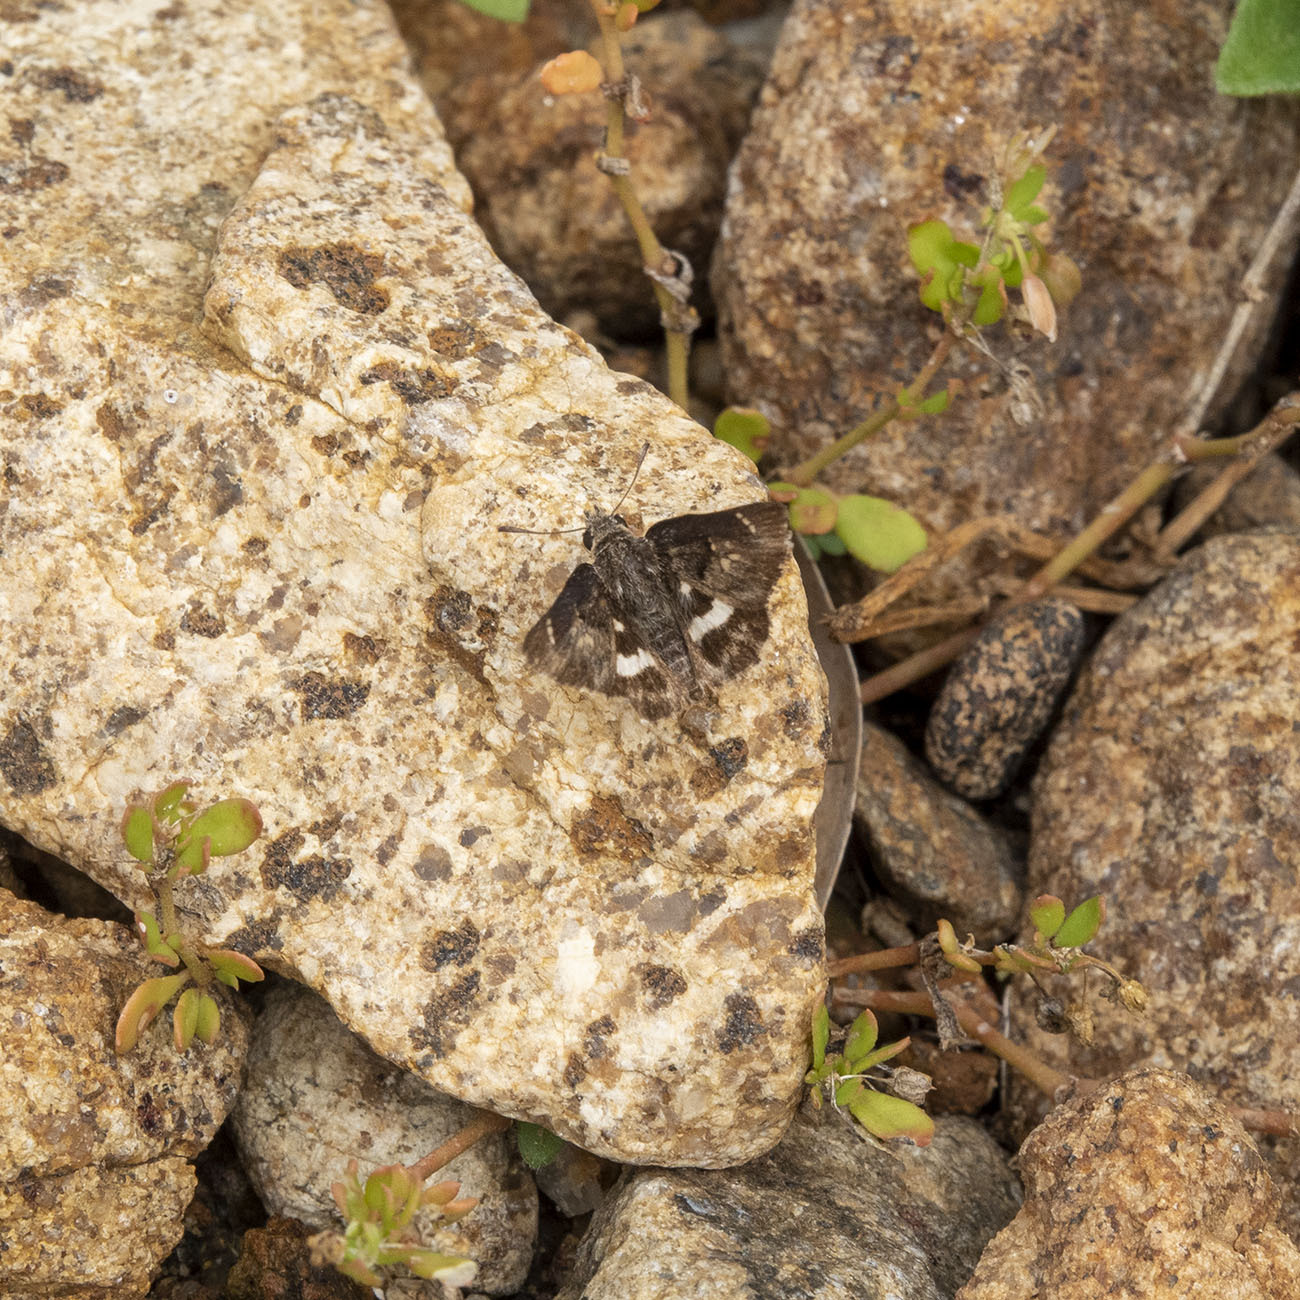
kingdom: Animalia
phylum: Arthropoda
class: Insecta
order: Lepidoptera
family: Hesperiidae
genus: Gomalia
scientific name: Gomalia elma
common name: Green-marbled skipper
